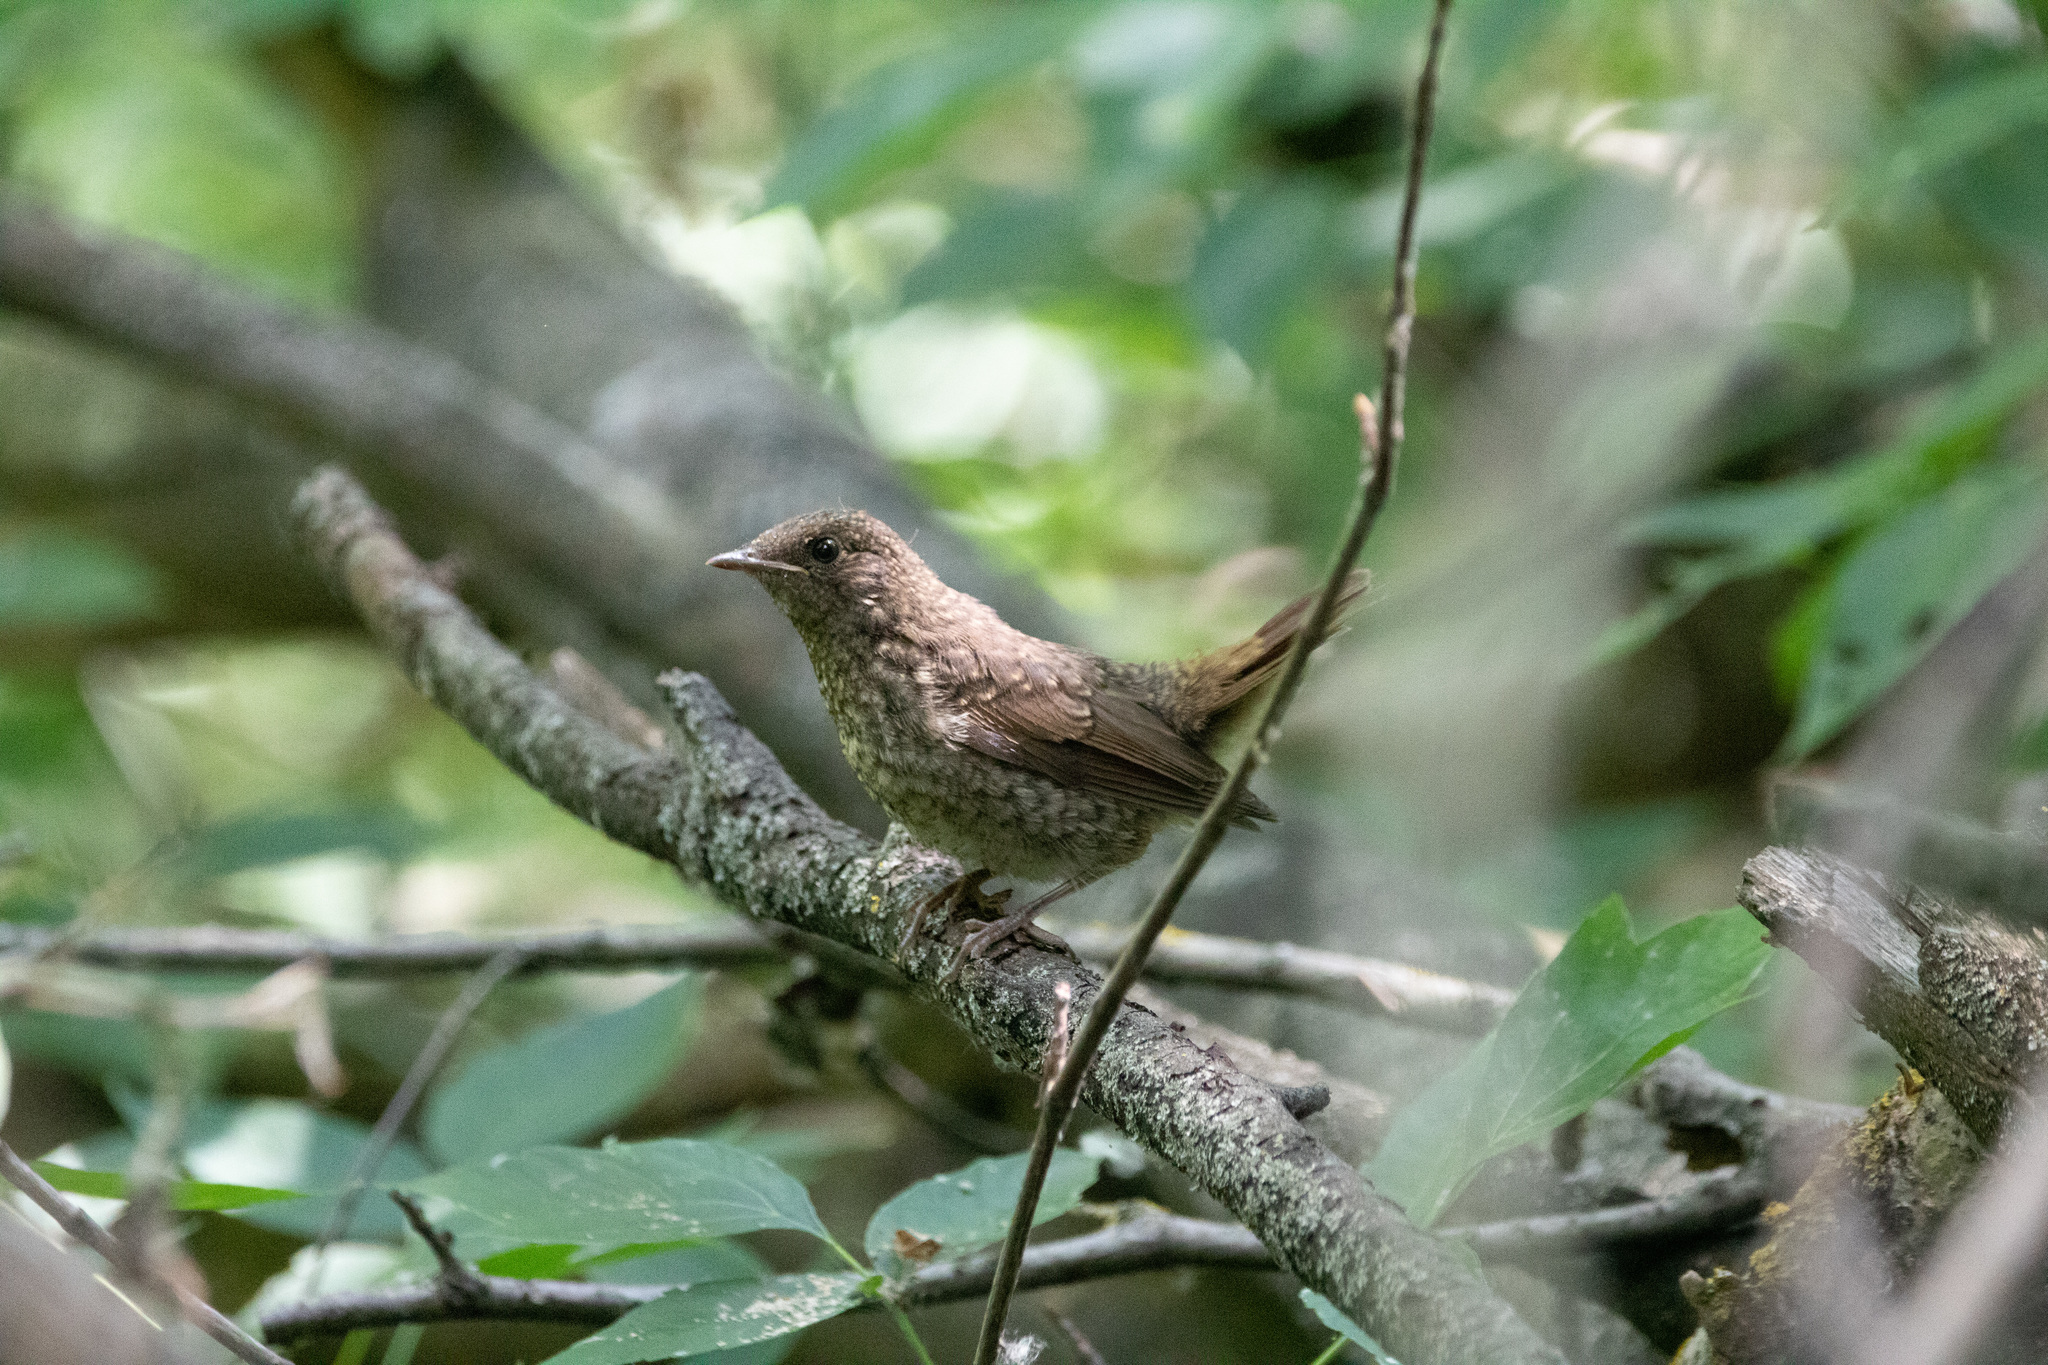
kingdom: Animalia
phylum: Chordata
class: Aves
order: Passeriformes
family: Troglodytidae
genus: Troglodytes
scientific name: Troglodytes troglodytes
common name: Eurasian wren
